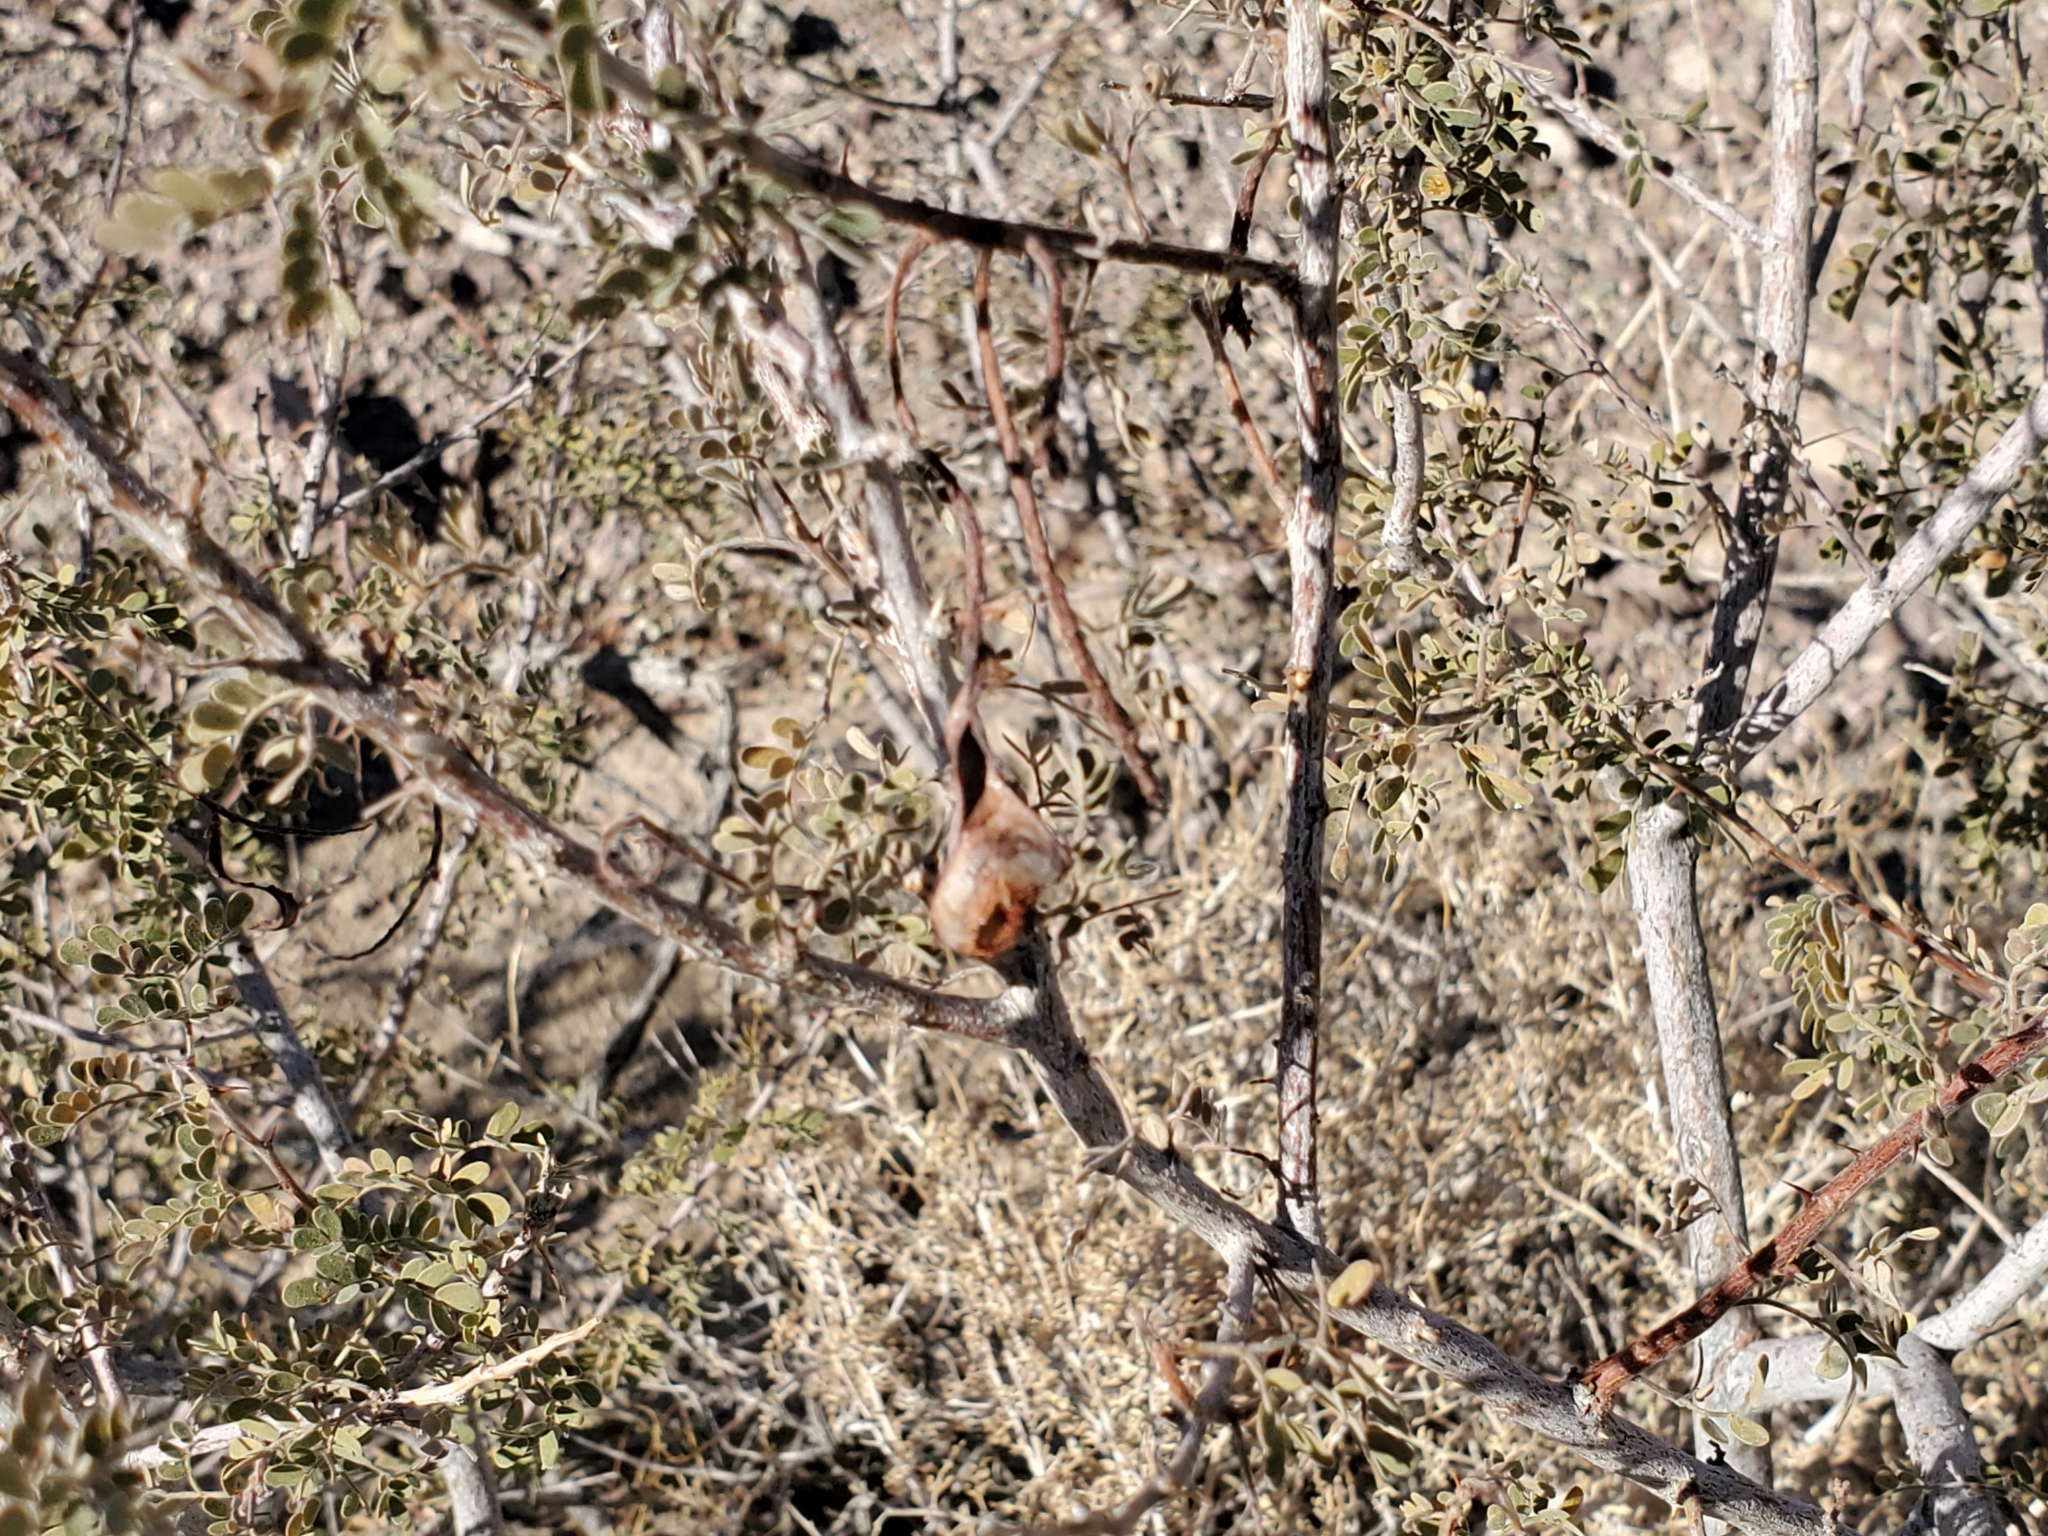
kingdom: Plantae
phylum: Tracheophyta
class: Magnoliopsida
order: Fabales
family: Fabaceae
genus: Senegalia
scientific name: Senegalia greggii
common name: Texas-mimosa
